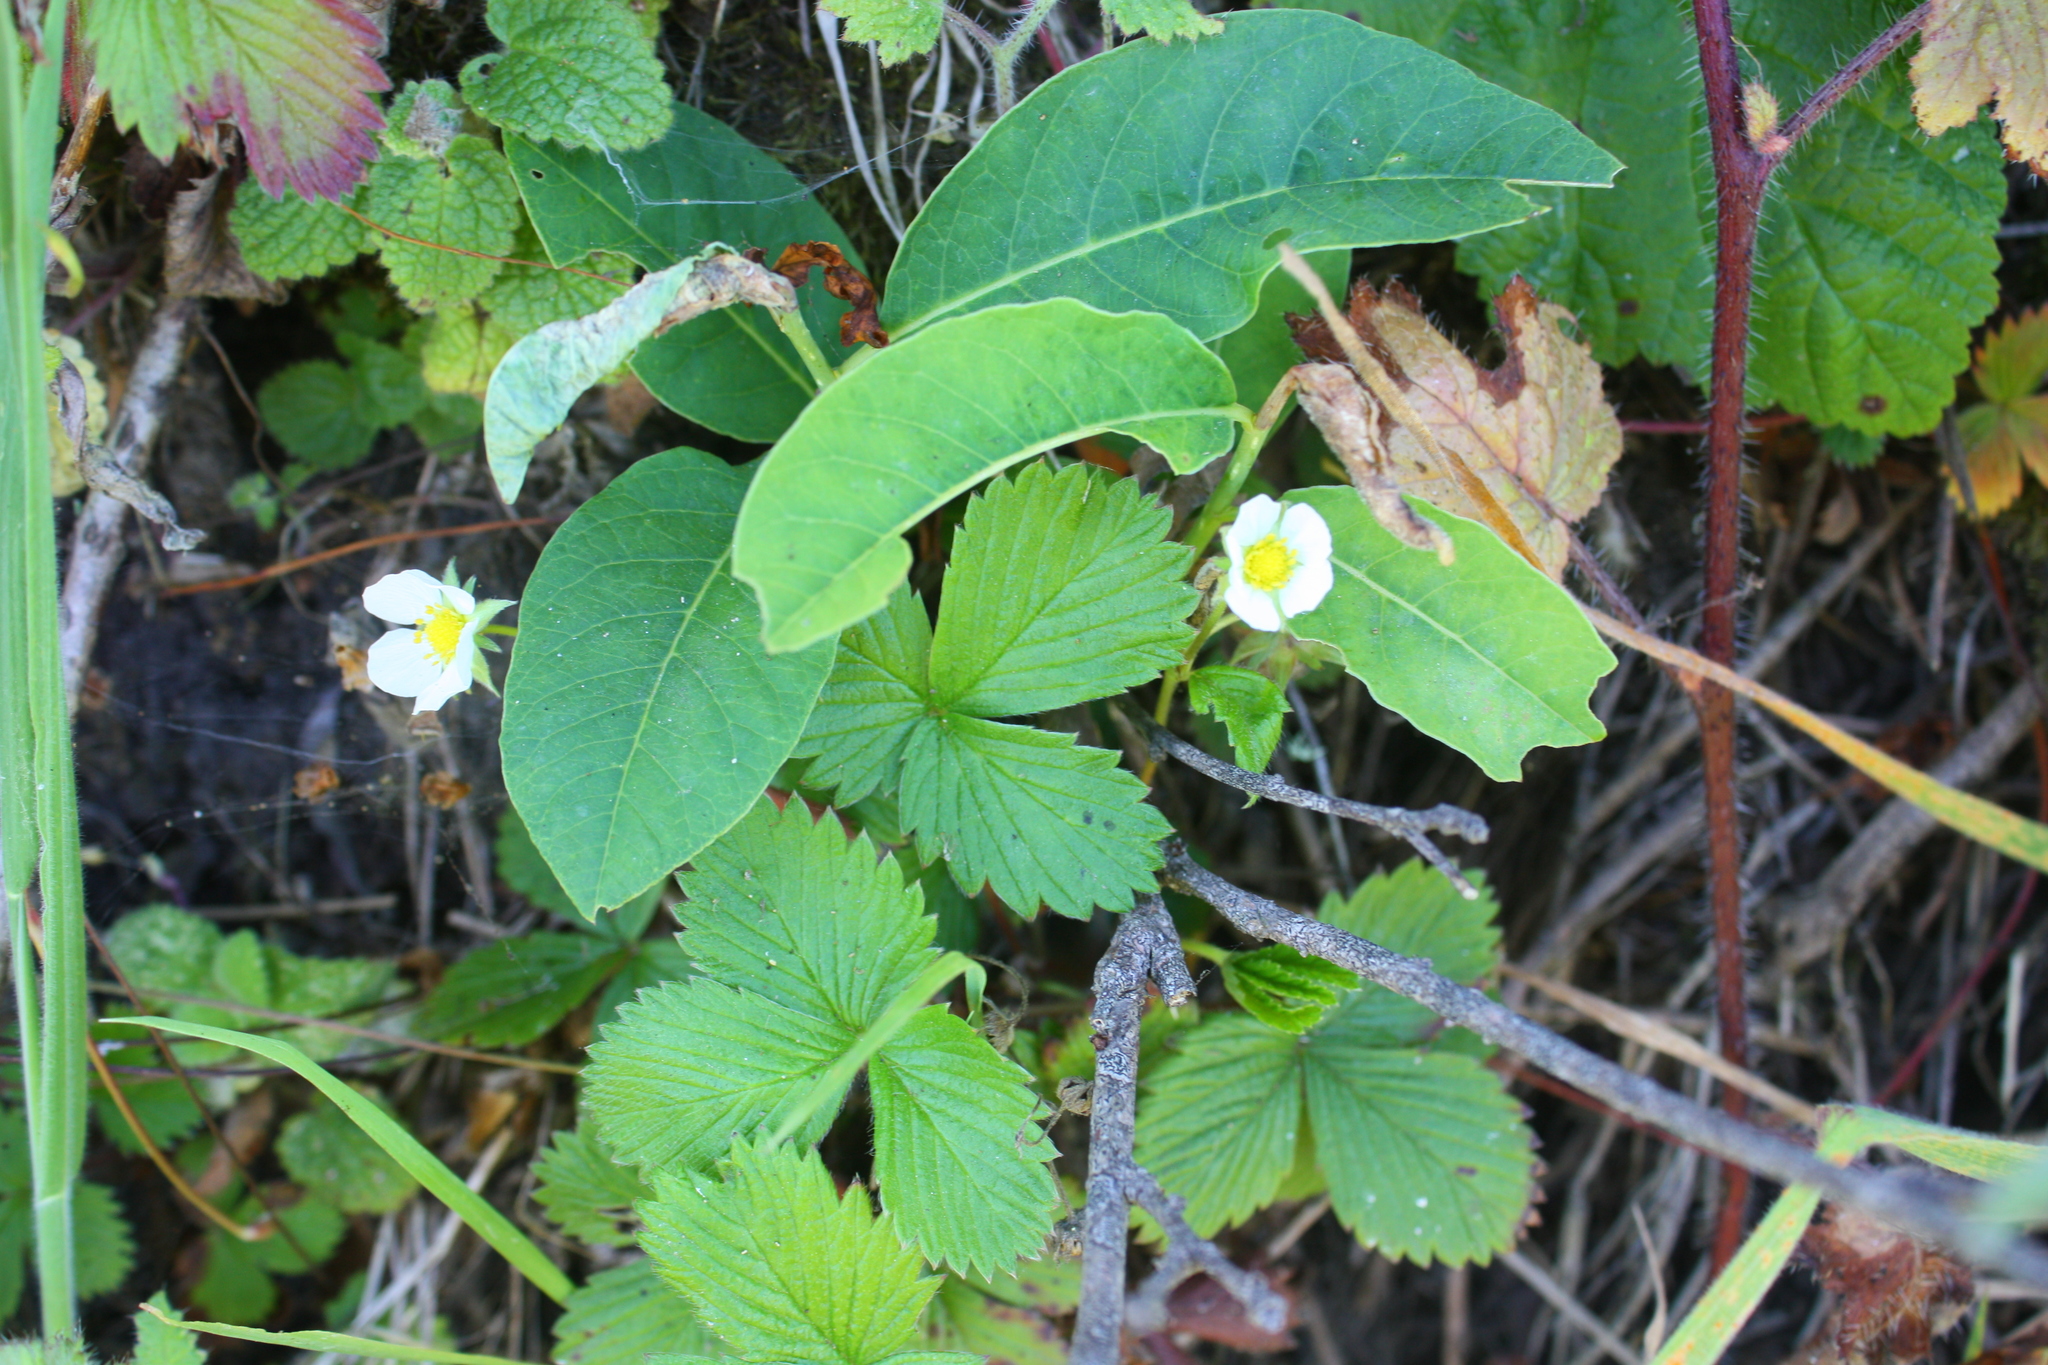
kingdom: Plantae
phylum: Tracheophyta
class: Magnoliopsida
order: Rosales
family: Rosaceae
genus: Fragaria
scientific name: Fragaria vesca
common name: Wild strawberry
